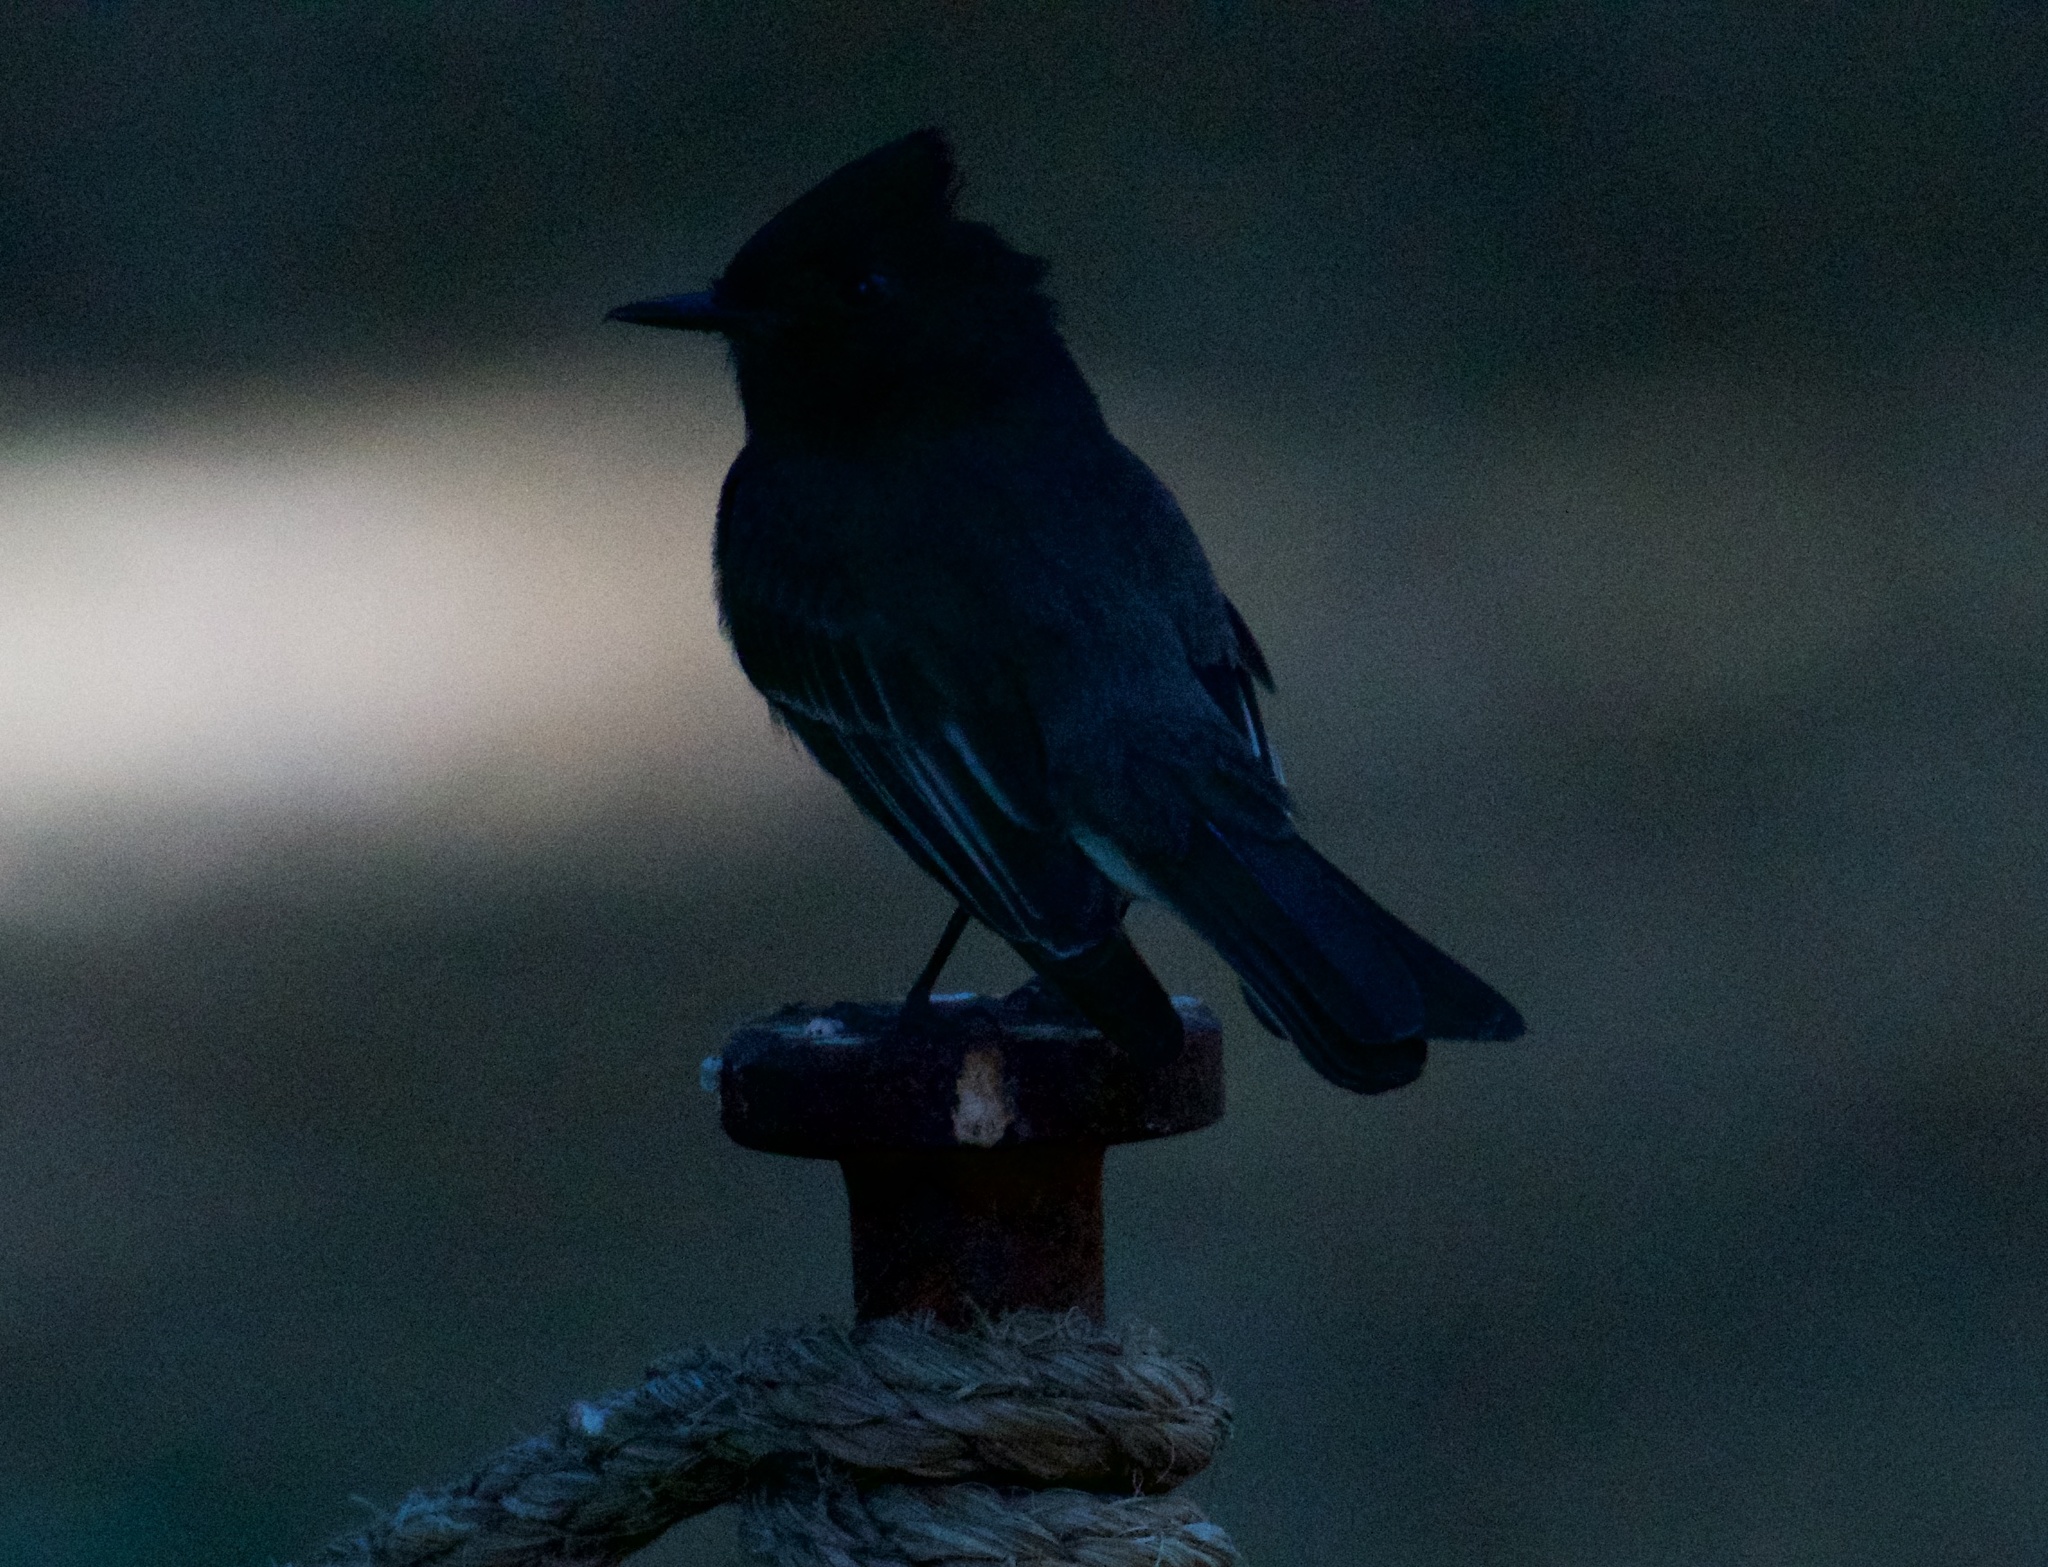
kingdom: Animalia
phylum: Chordata
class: Aves
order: Passeriformes
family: Tyrannidae
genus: Sayornis
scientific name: Sayornis nigricans
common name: Black phoebe
